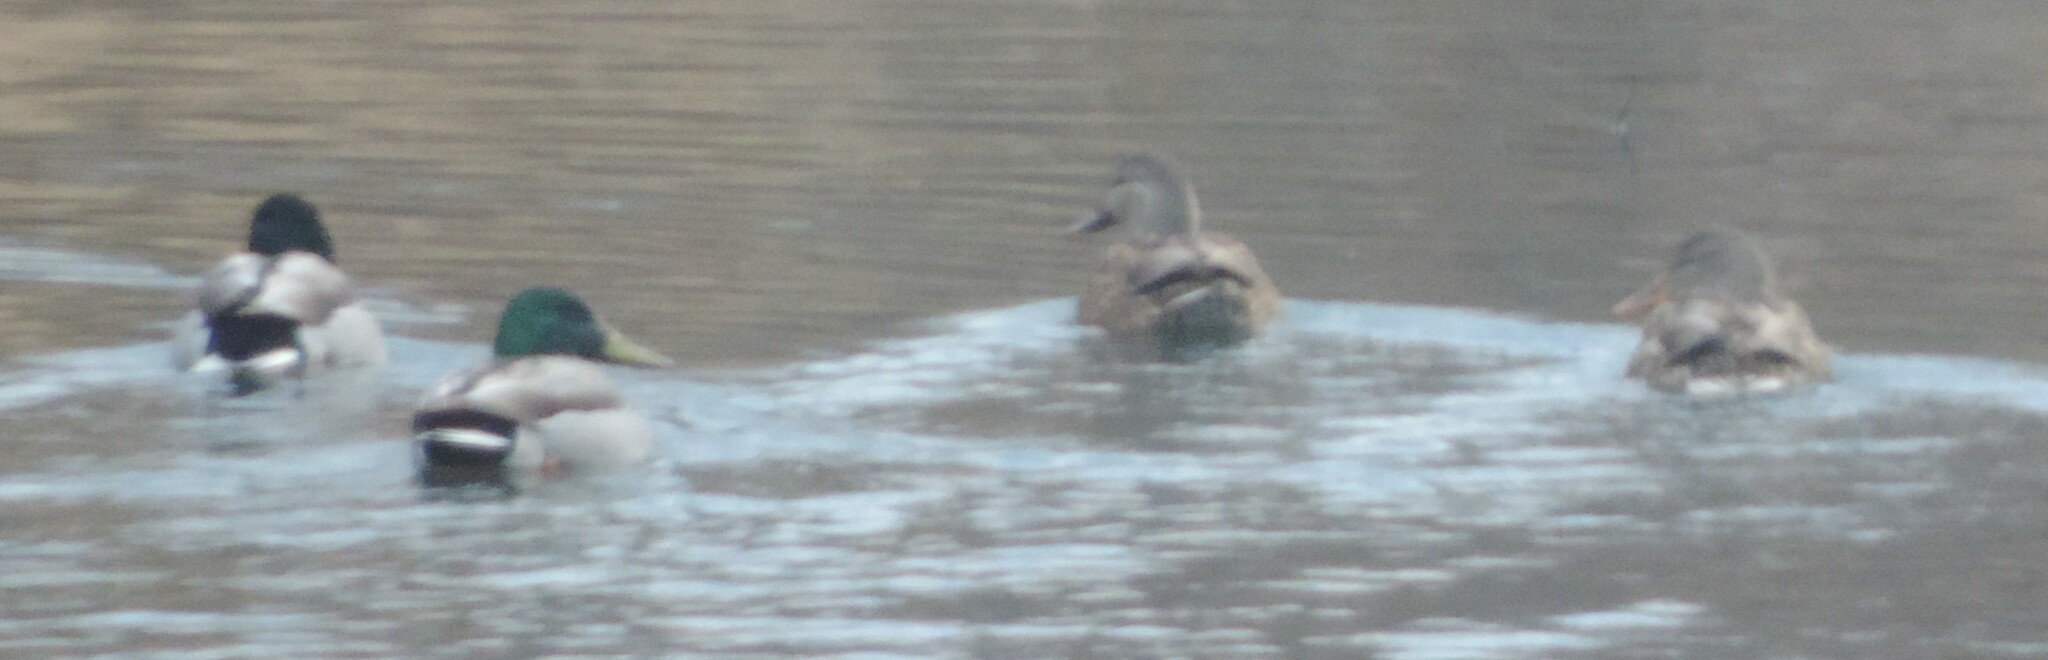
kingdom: Animalia
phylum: Chordata
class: Aves
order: Anseriformes
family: Anatidae
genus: Anas
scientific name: Anas platyrhynchos
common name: Mallard
